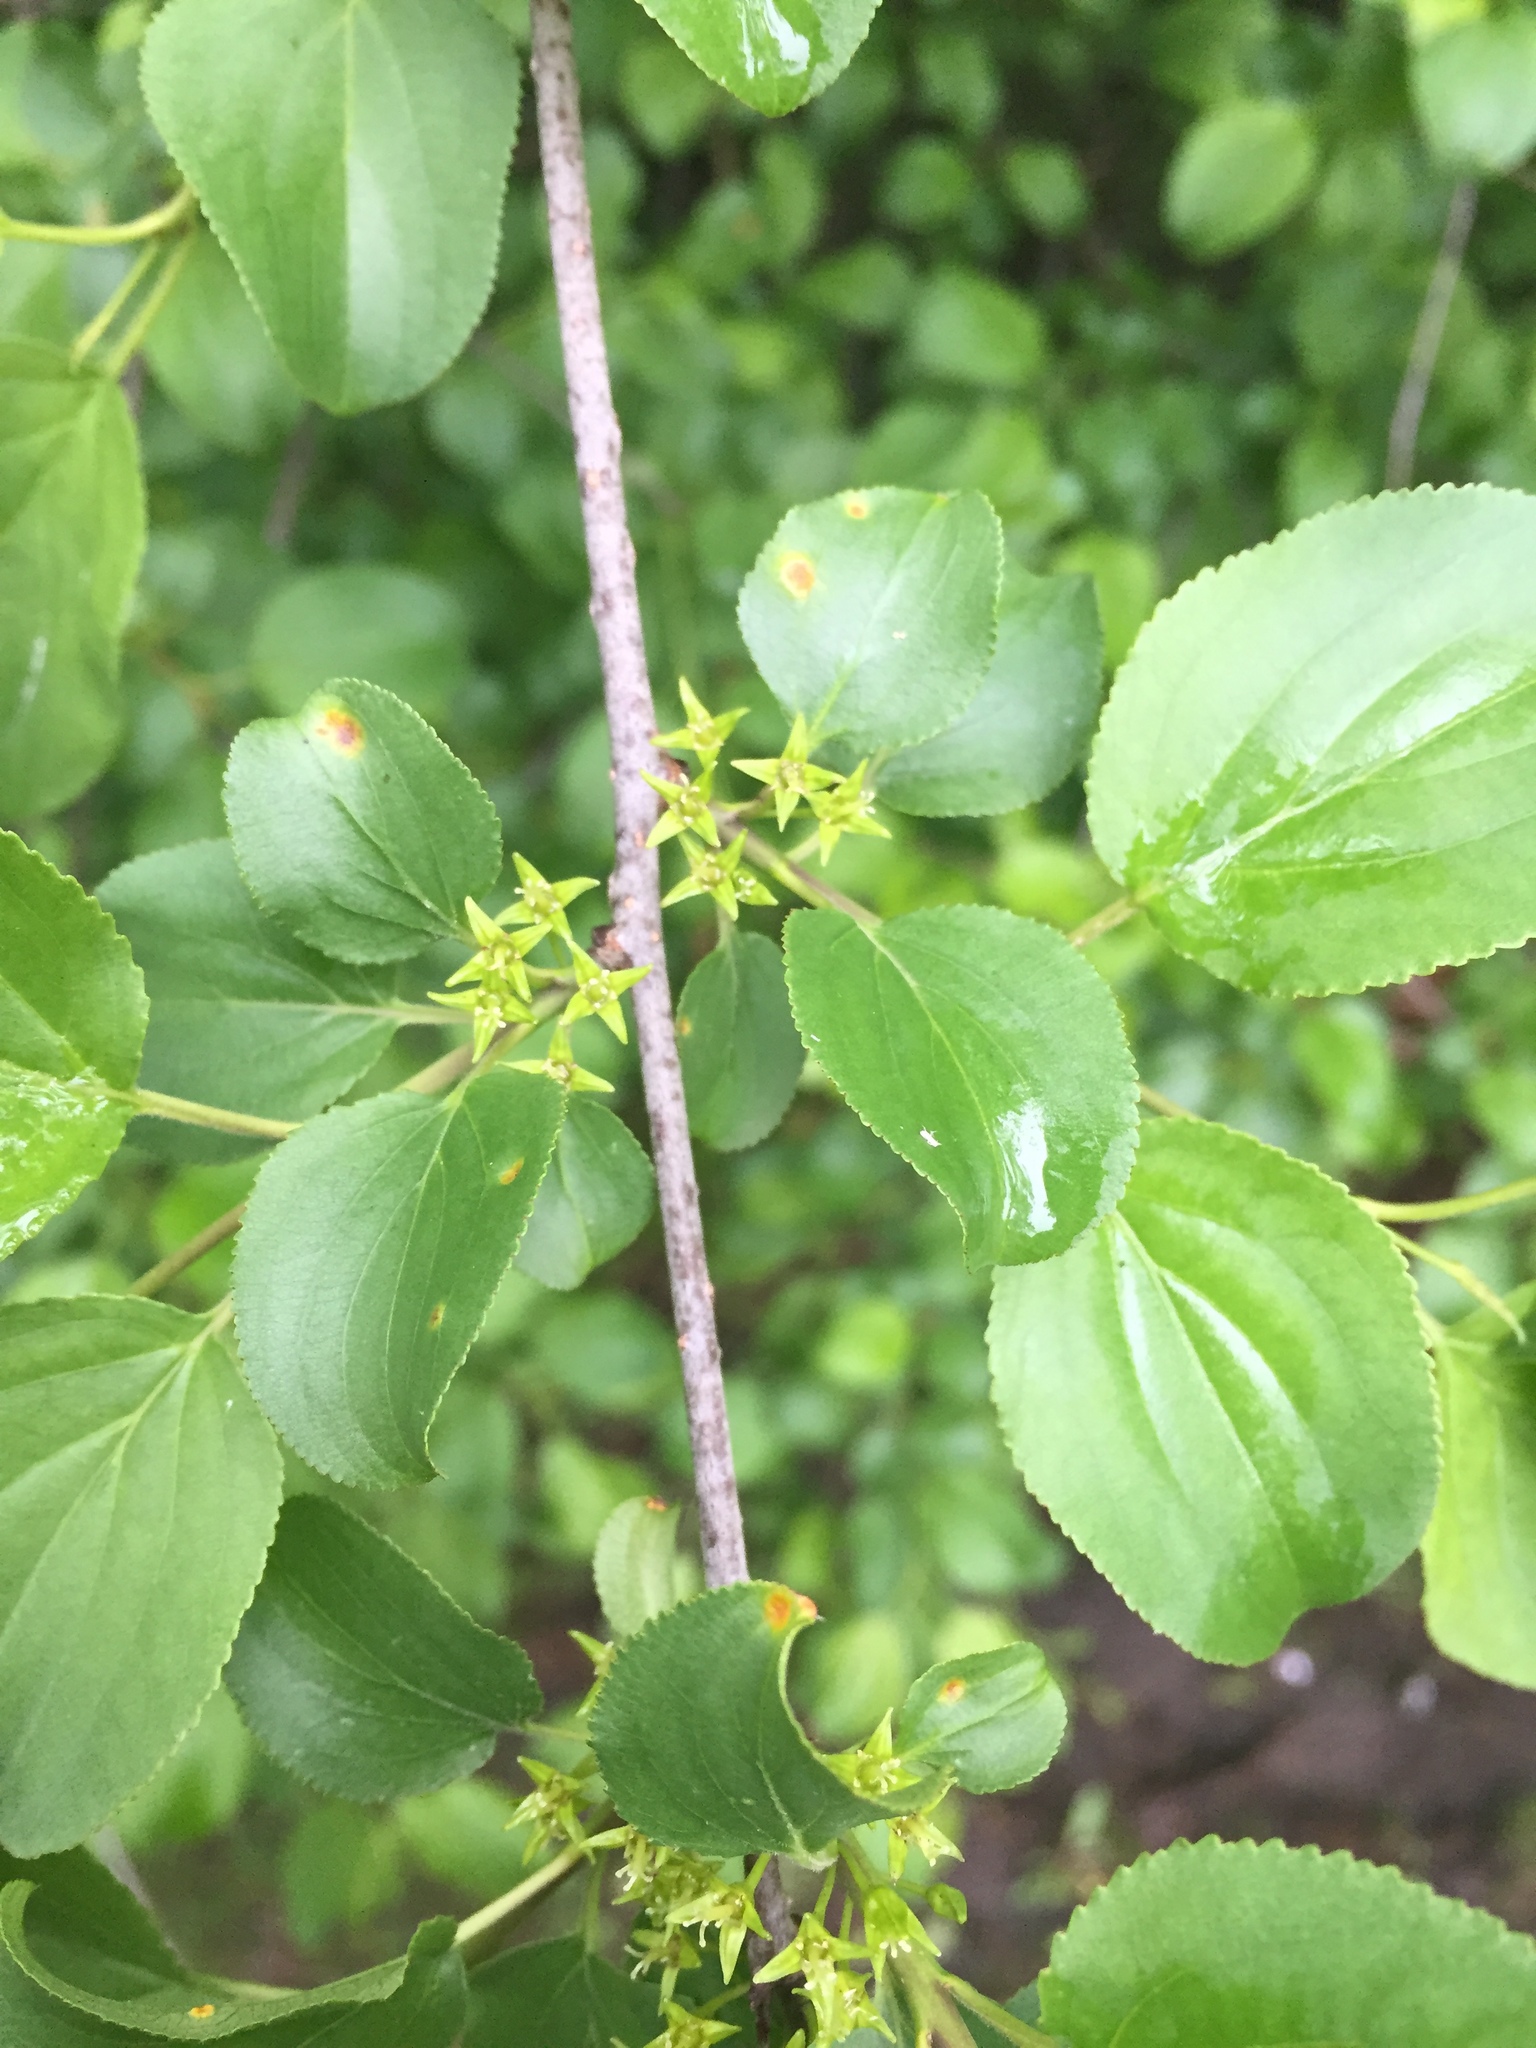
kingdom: Plantae
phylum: Tracheophyta
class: Magnoliopsida
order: Rosales
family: Rhamnaceae
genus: Rhamnus
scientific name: Rhamnus cathartica
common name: Common buckthorn
